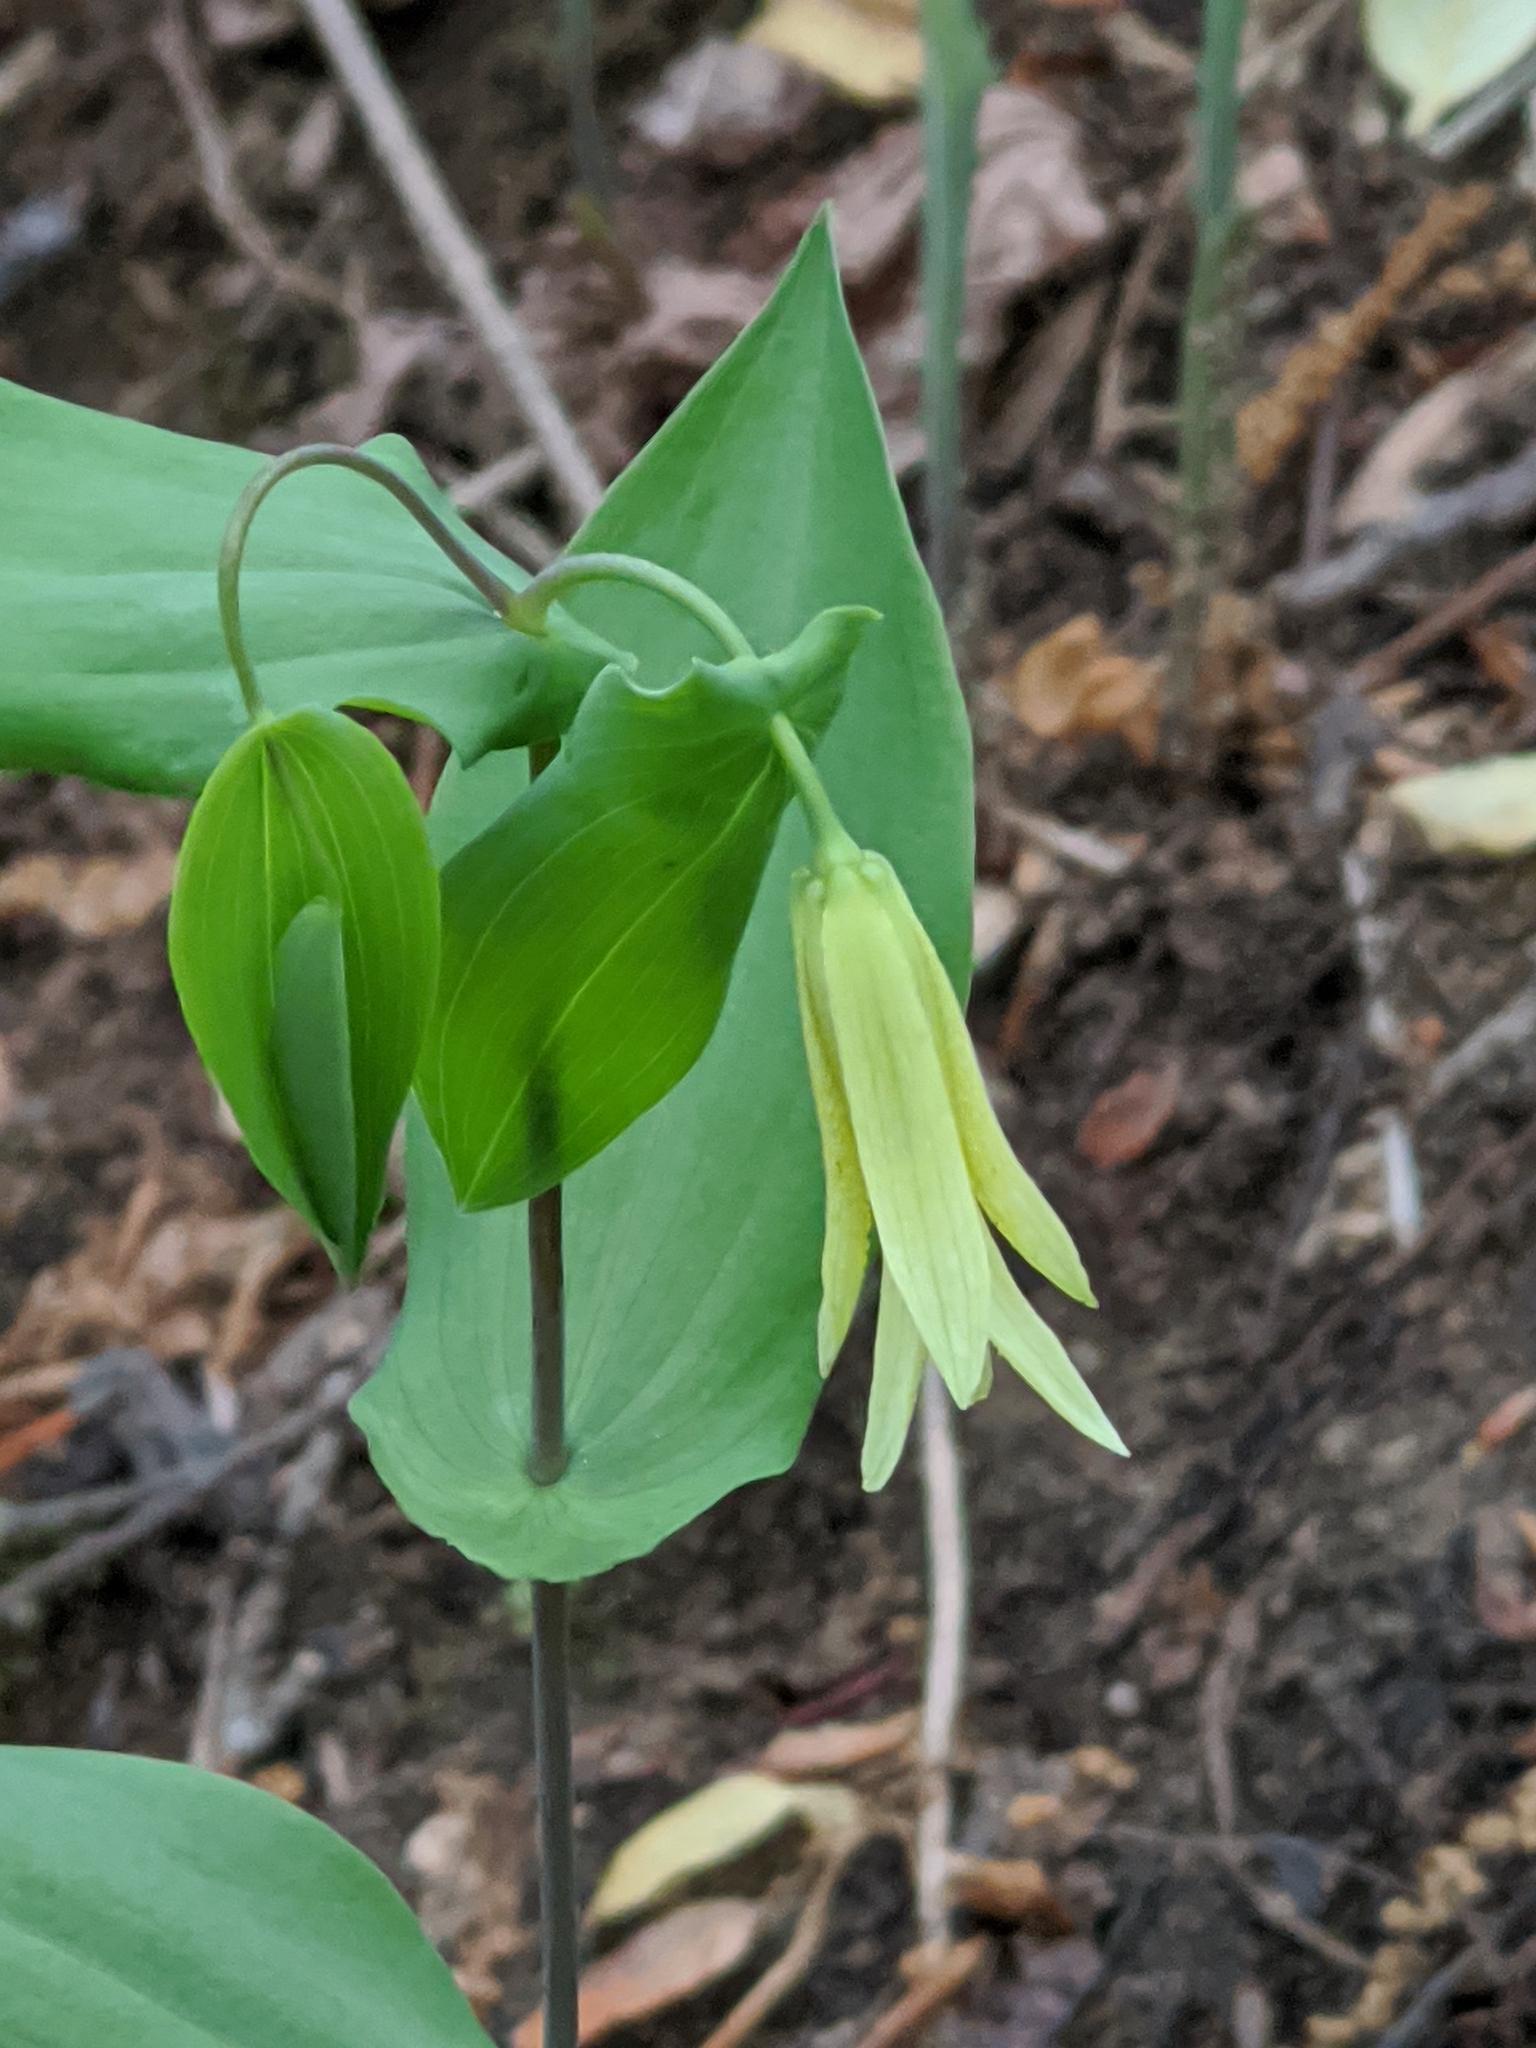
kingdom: Plantae
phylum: Tracheophyta
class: Liliopsida
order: Liliales
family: Colchicaceae
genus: Uvularia
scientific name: Uvularia perfoliata
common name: Perfoliate bellwort
